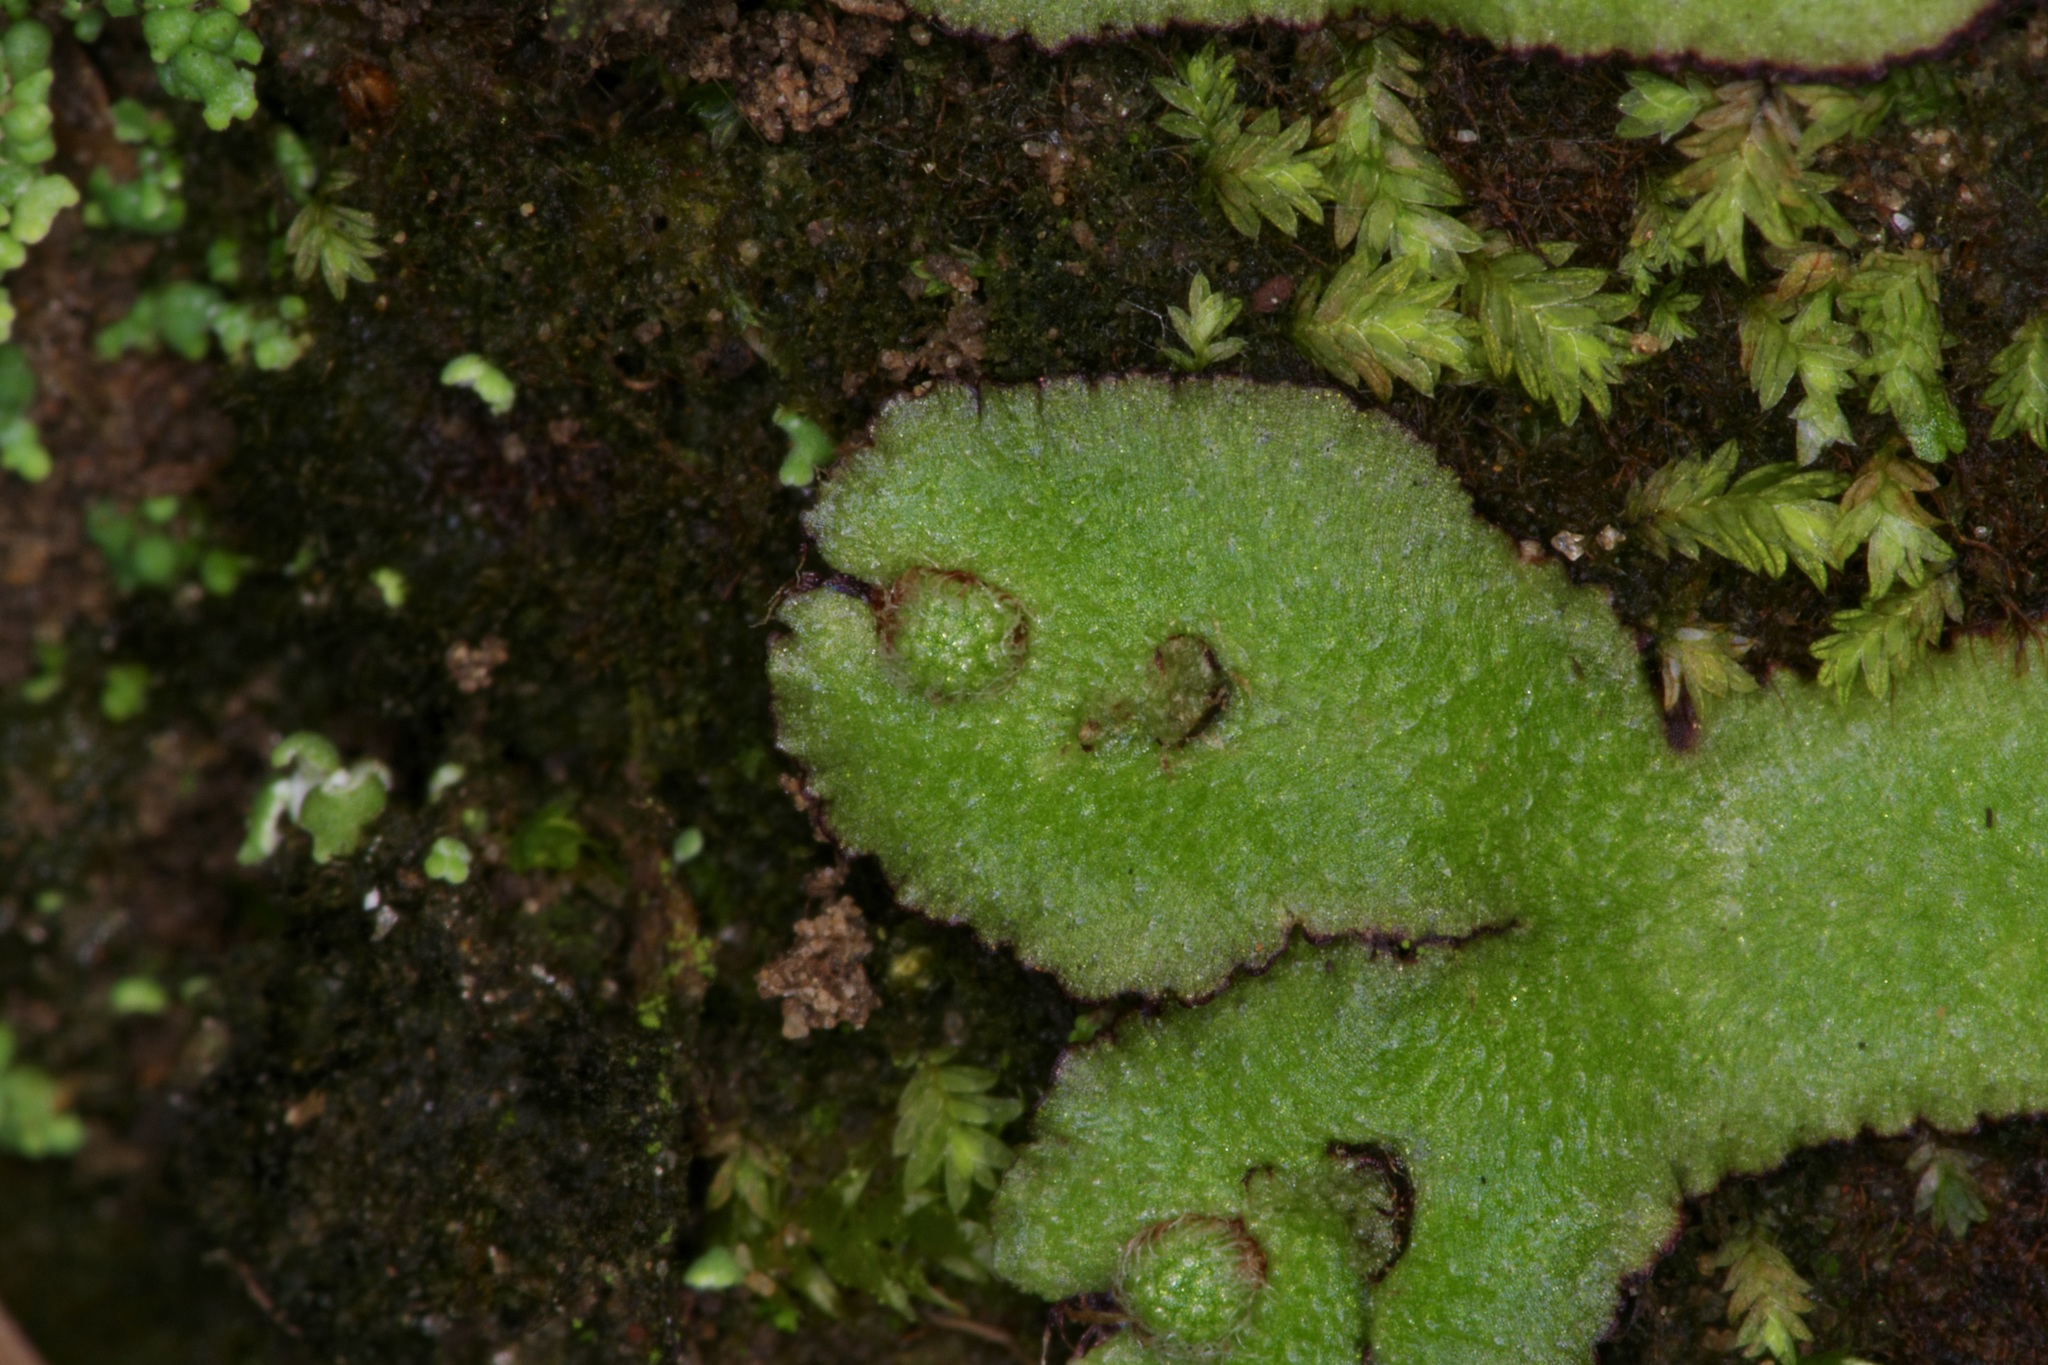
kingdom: Plantae
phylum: Marchantiophyta
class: Marchantiopsida
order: Marchantiales
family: Aytoniaceae
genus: Reboulia
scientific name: Reboulia hemisphaerica
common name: Purple-margined liverwort
